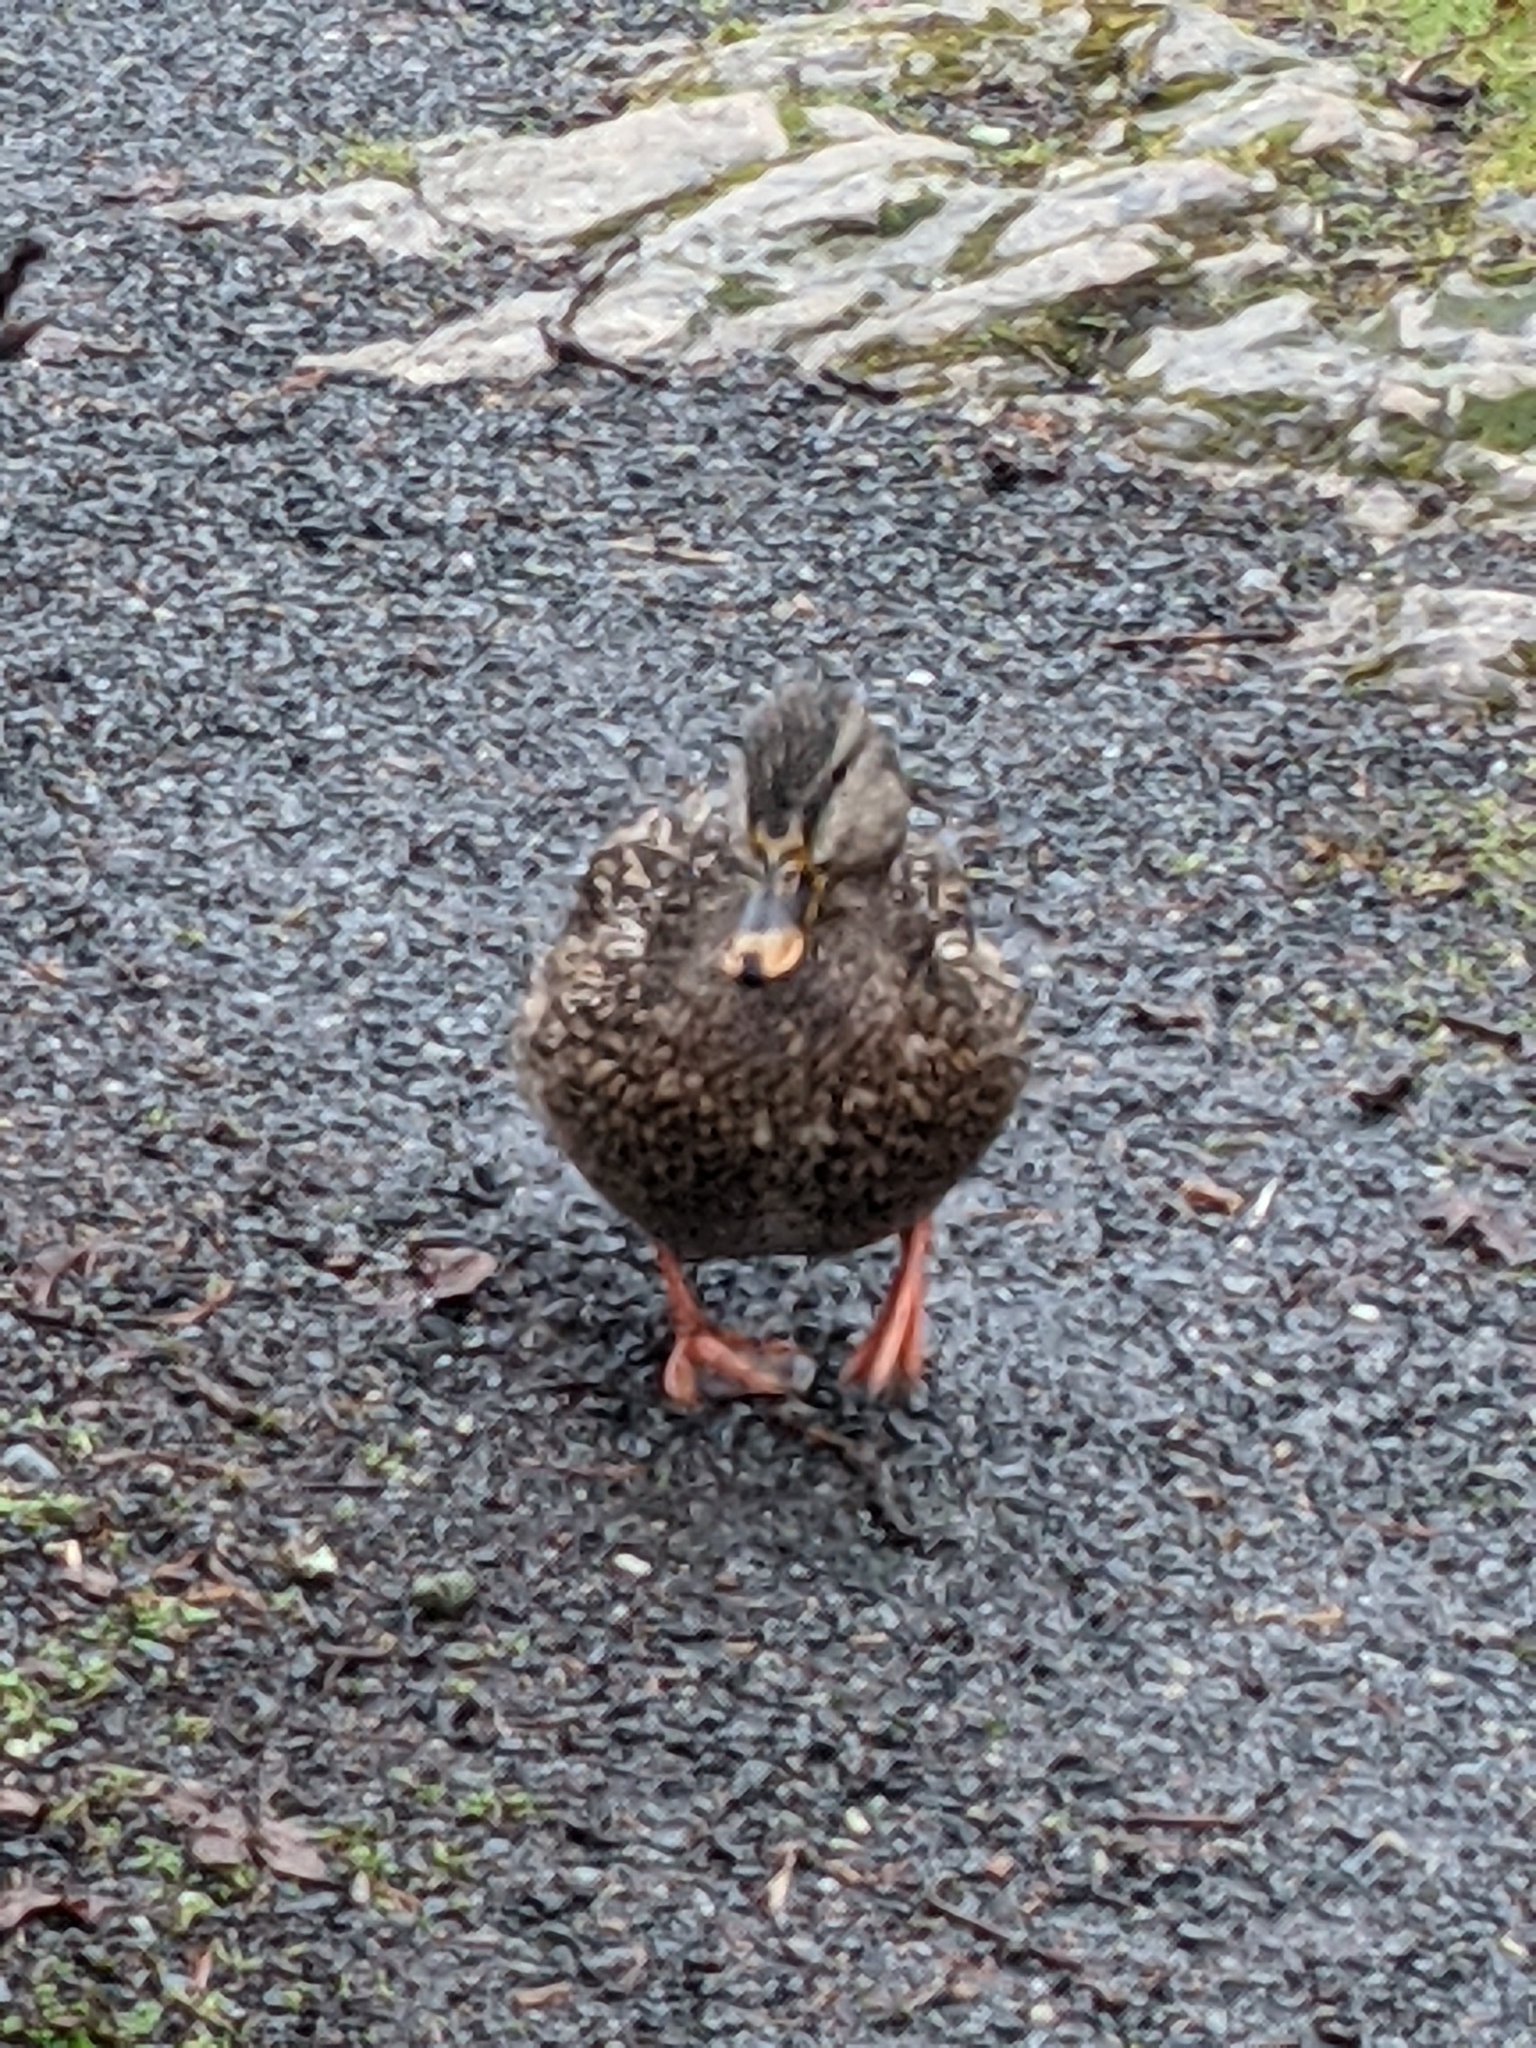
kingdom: Animalia
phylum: Chordata
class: Aves
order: Anseriformes
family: Anatidae
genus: Anas
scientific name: Anas platyrhynchos
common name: Mallard
